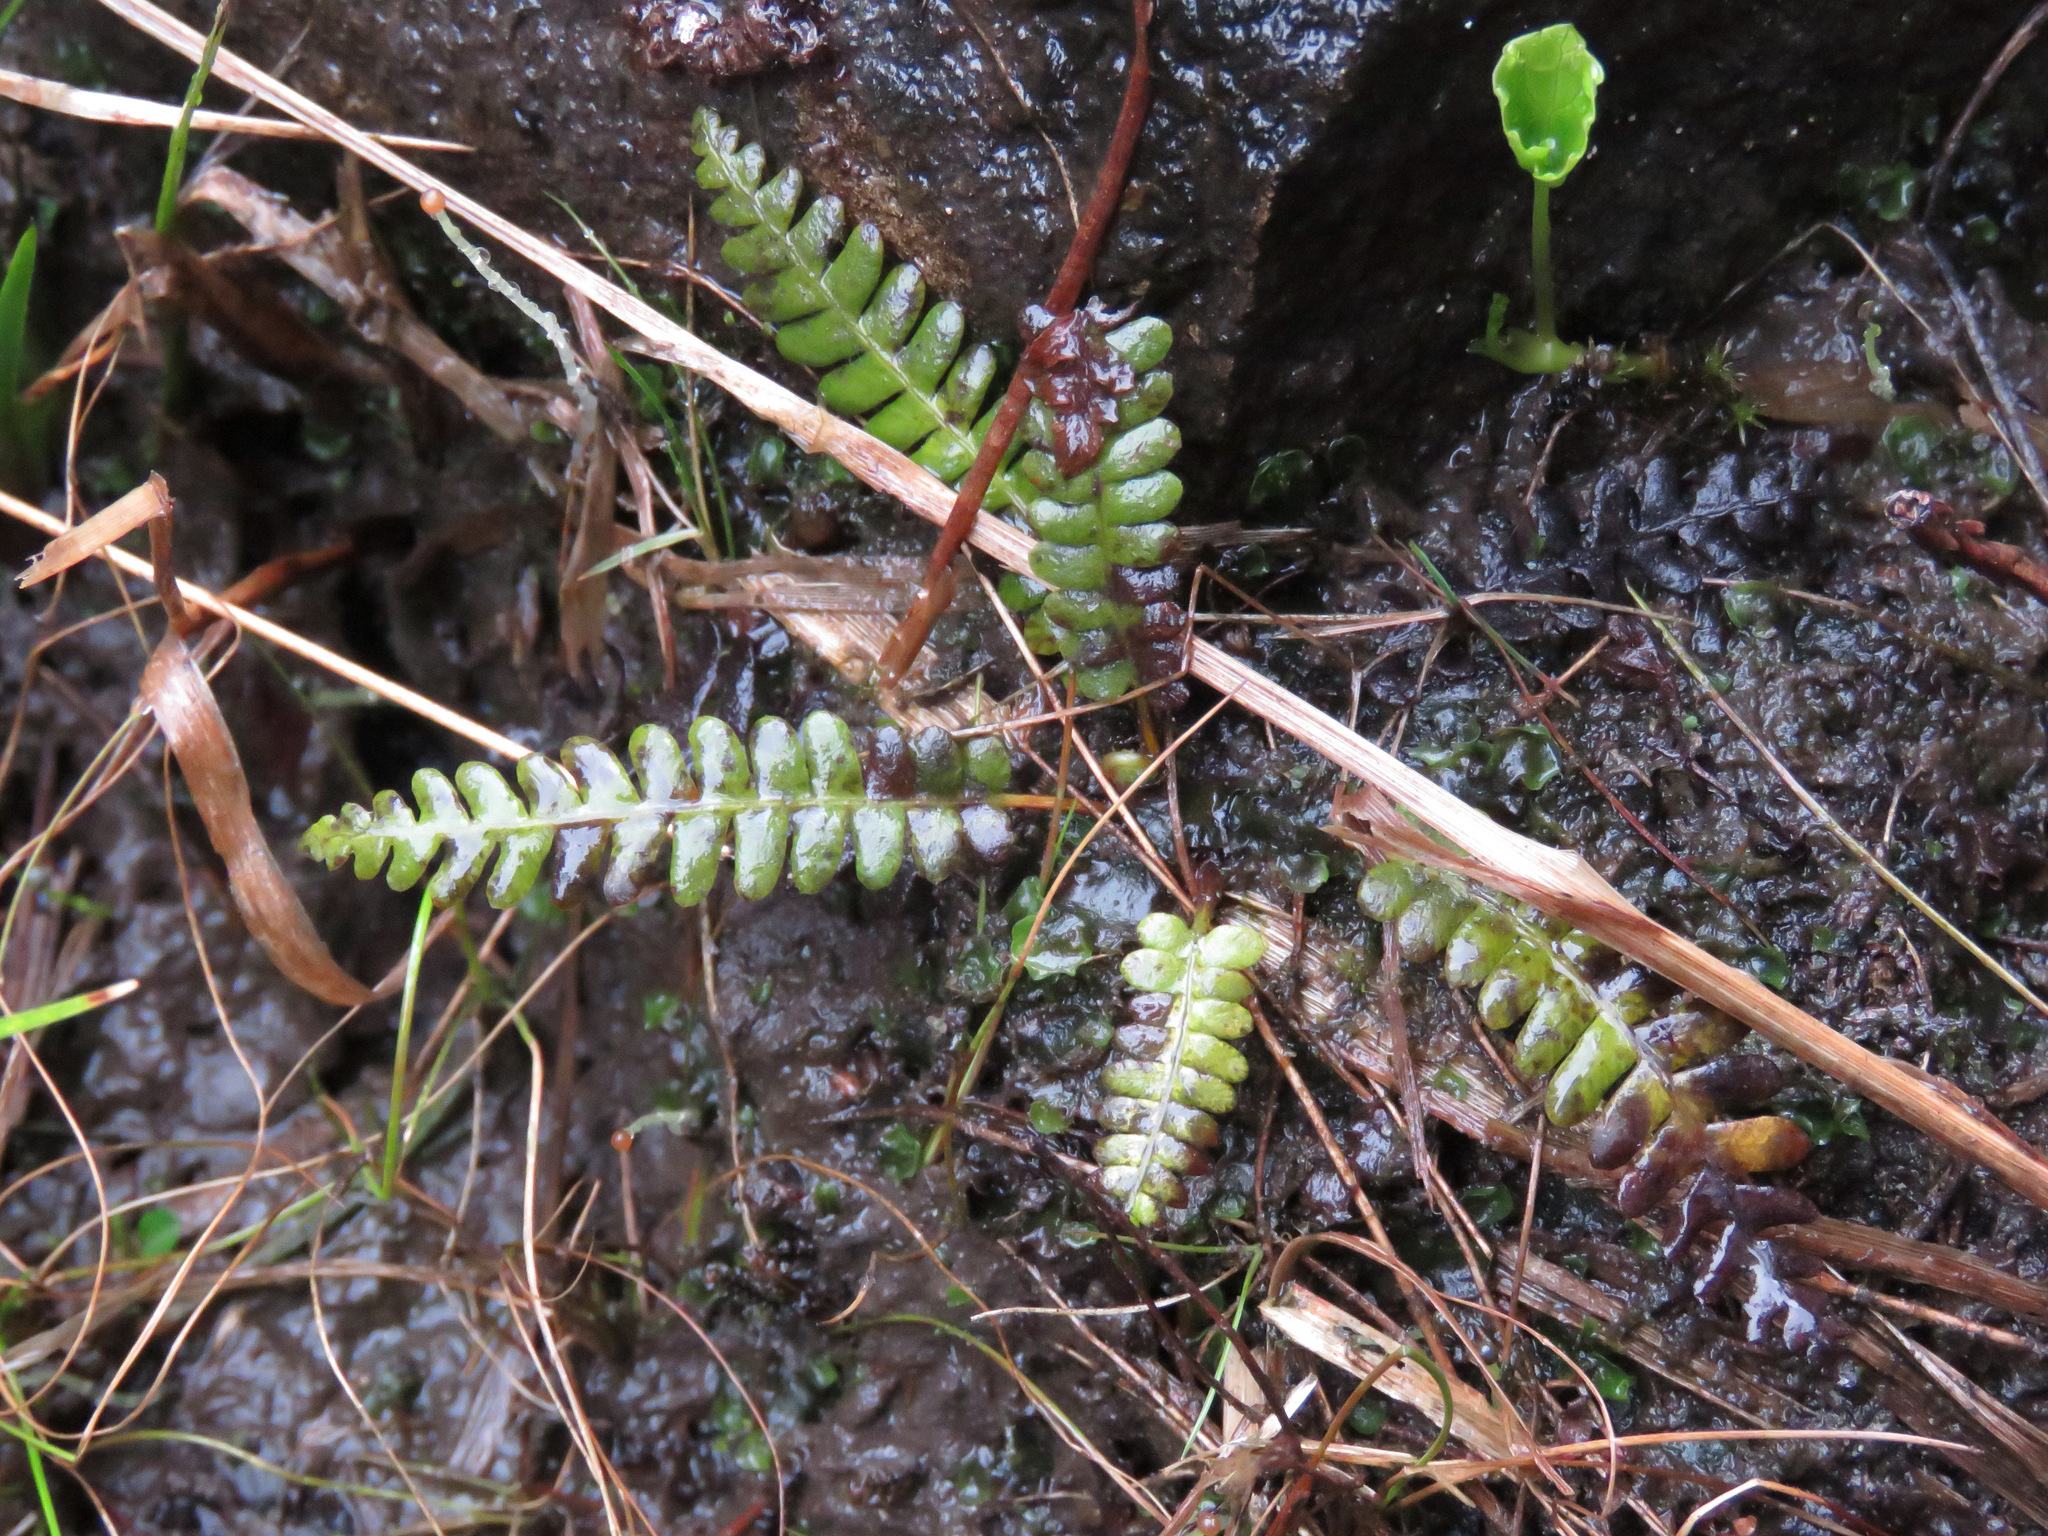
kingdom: Plantae
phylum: Tracheophyta
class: Polypodiopsida
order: Polypodiales
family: Blechnaceae
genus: Struthiopteris
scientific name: Struthiopteris spicant
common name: Deer fern
